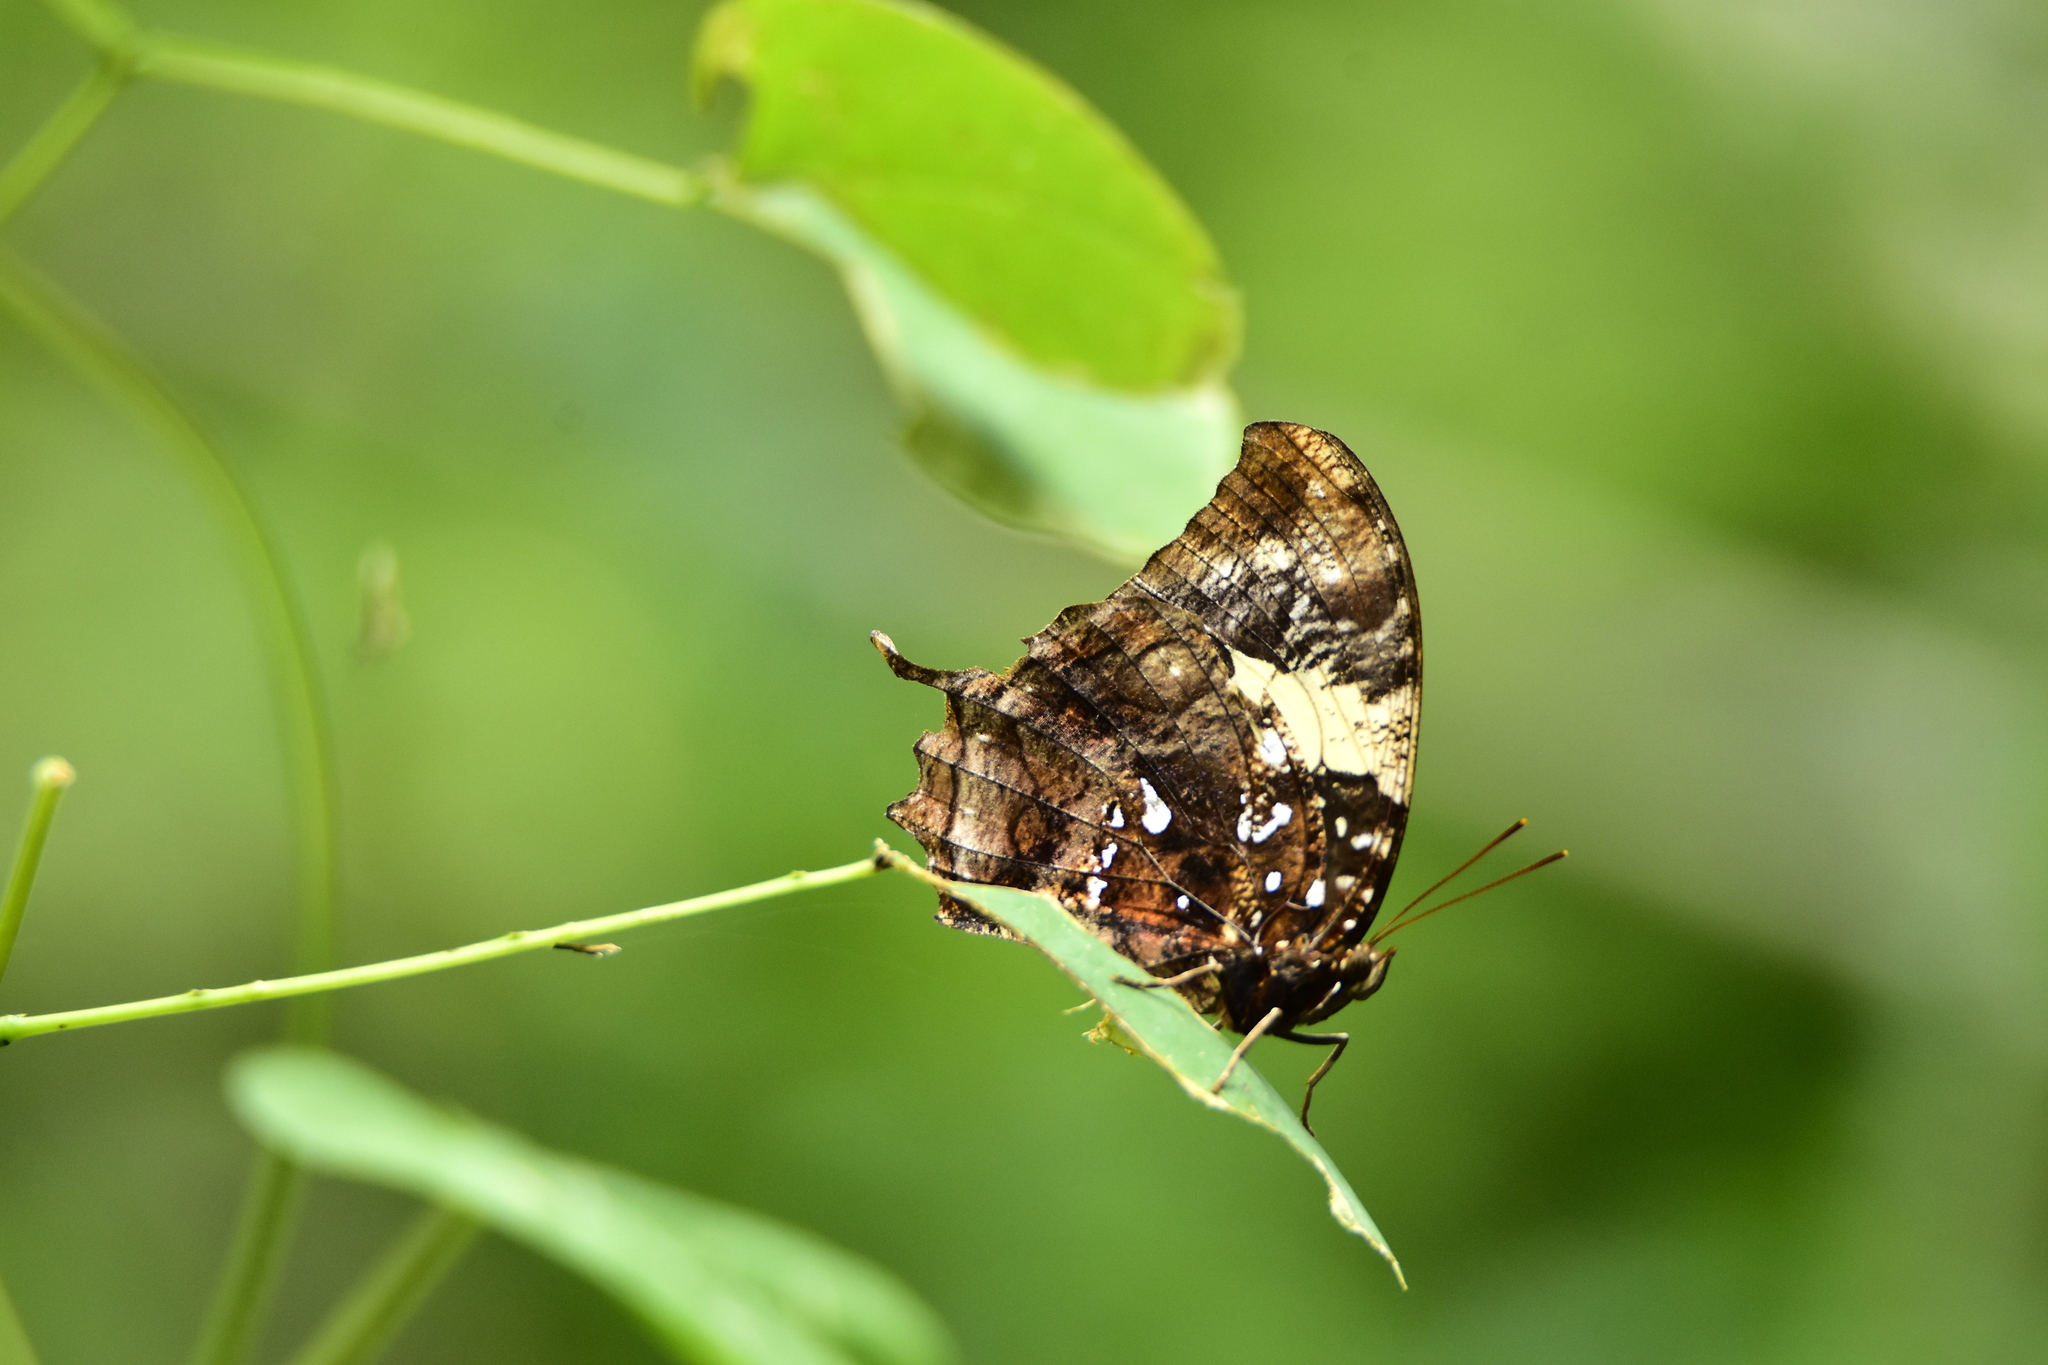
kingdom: Animalia
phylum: Arthropoda
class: Insecta
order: Lepidoptera
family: Nymphalidae
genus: Hypna
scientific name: Hypna clytemnestra
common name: Silver-studded leafwing
